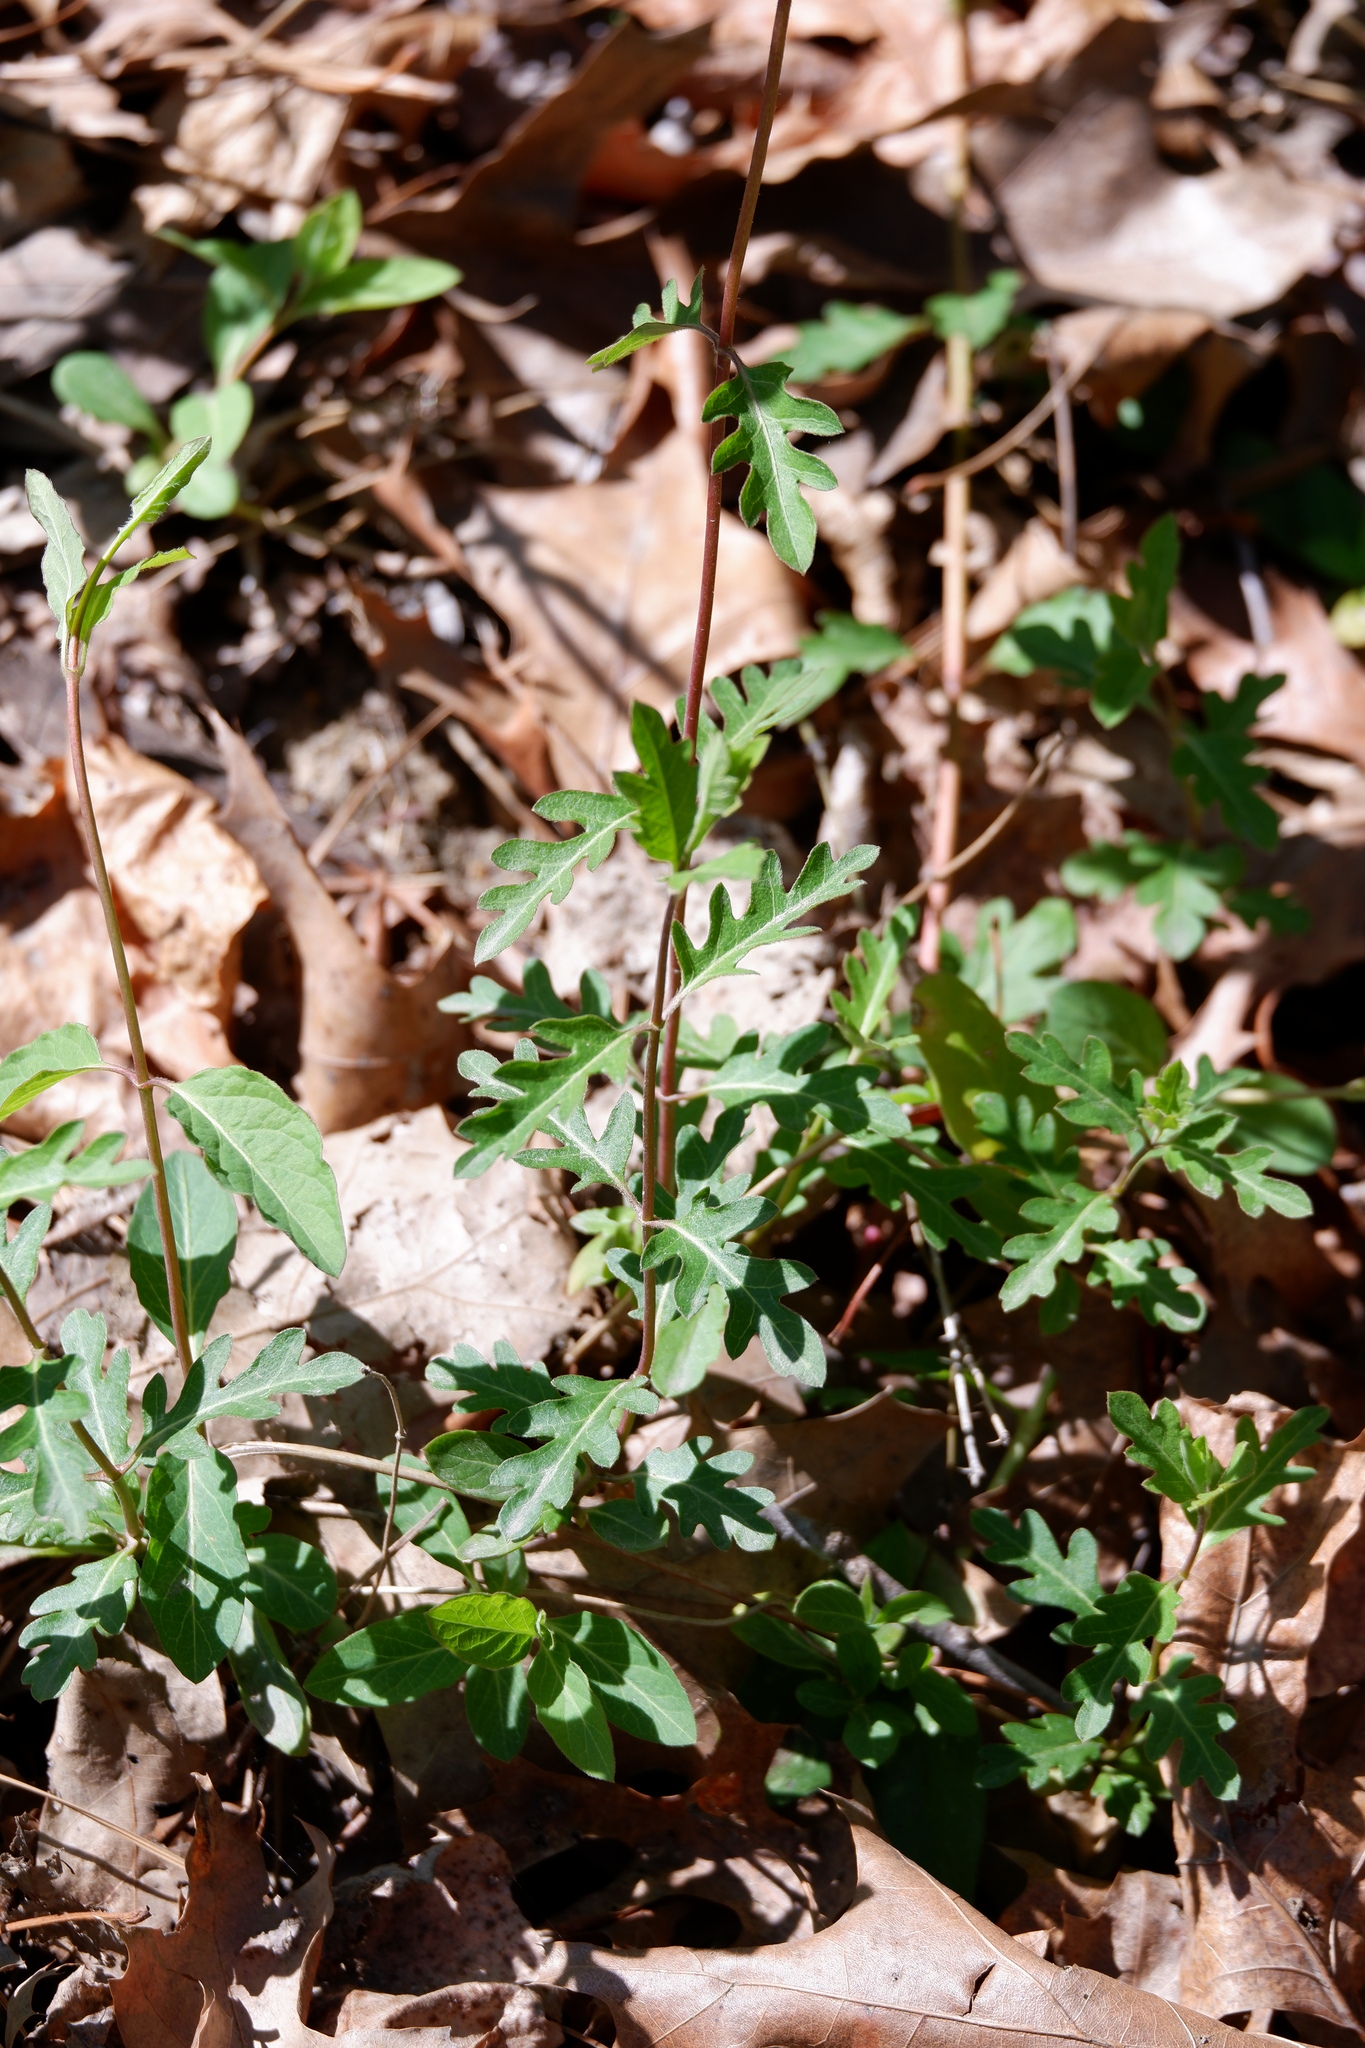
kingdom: Plantae
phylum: Tracheophyta
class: Magnoliopsida
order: Dipsacales
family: Caprifoliaceae
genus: Lonicera
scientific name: Lonicera japonica
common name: Japanese honeysuckle
